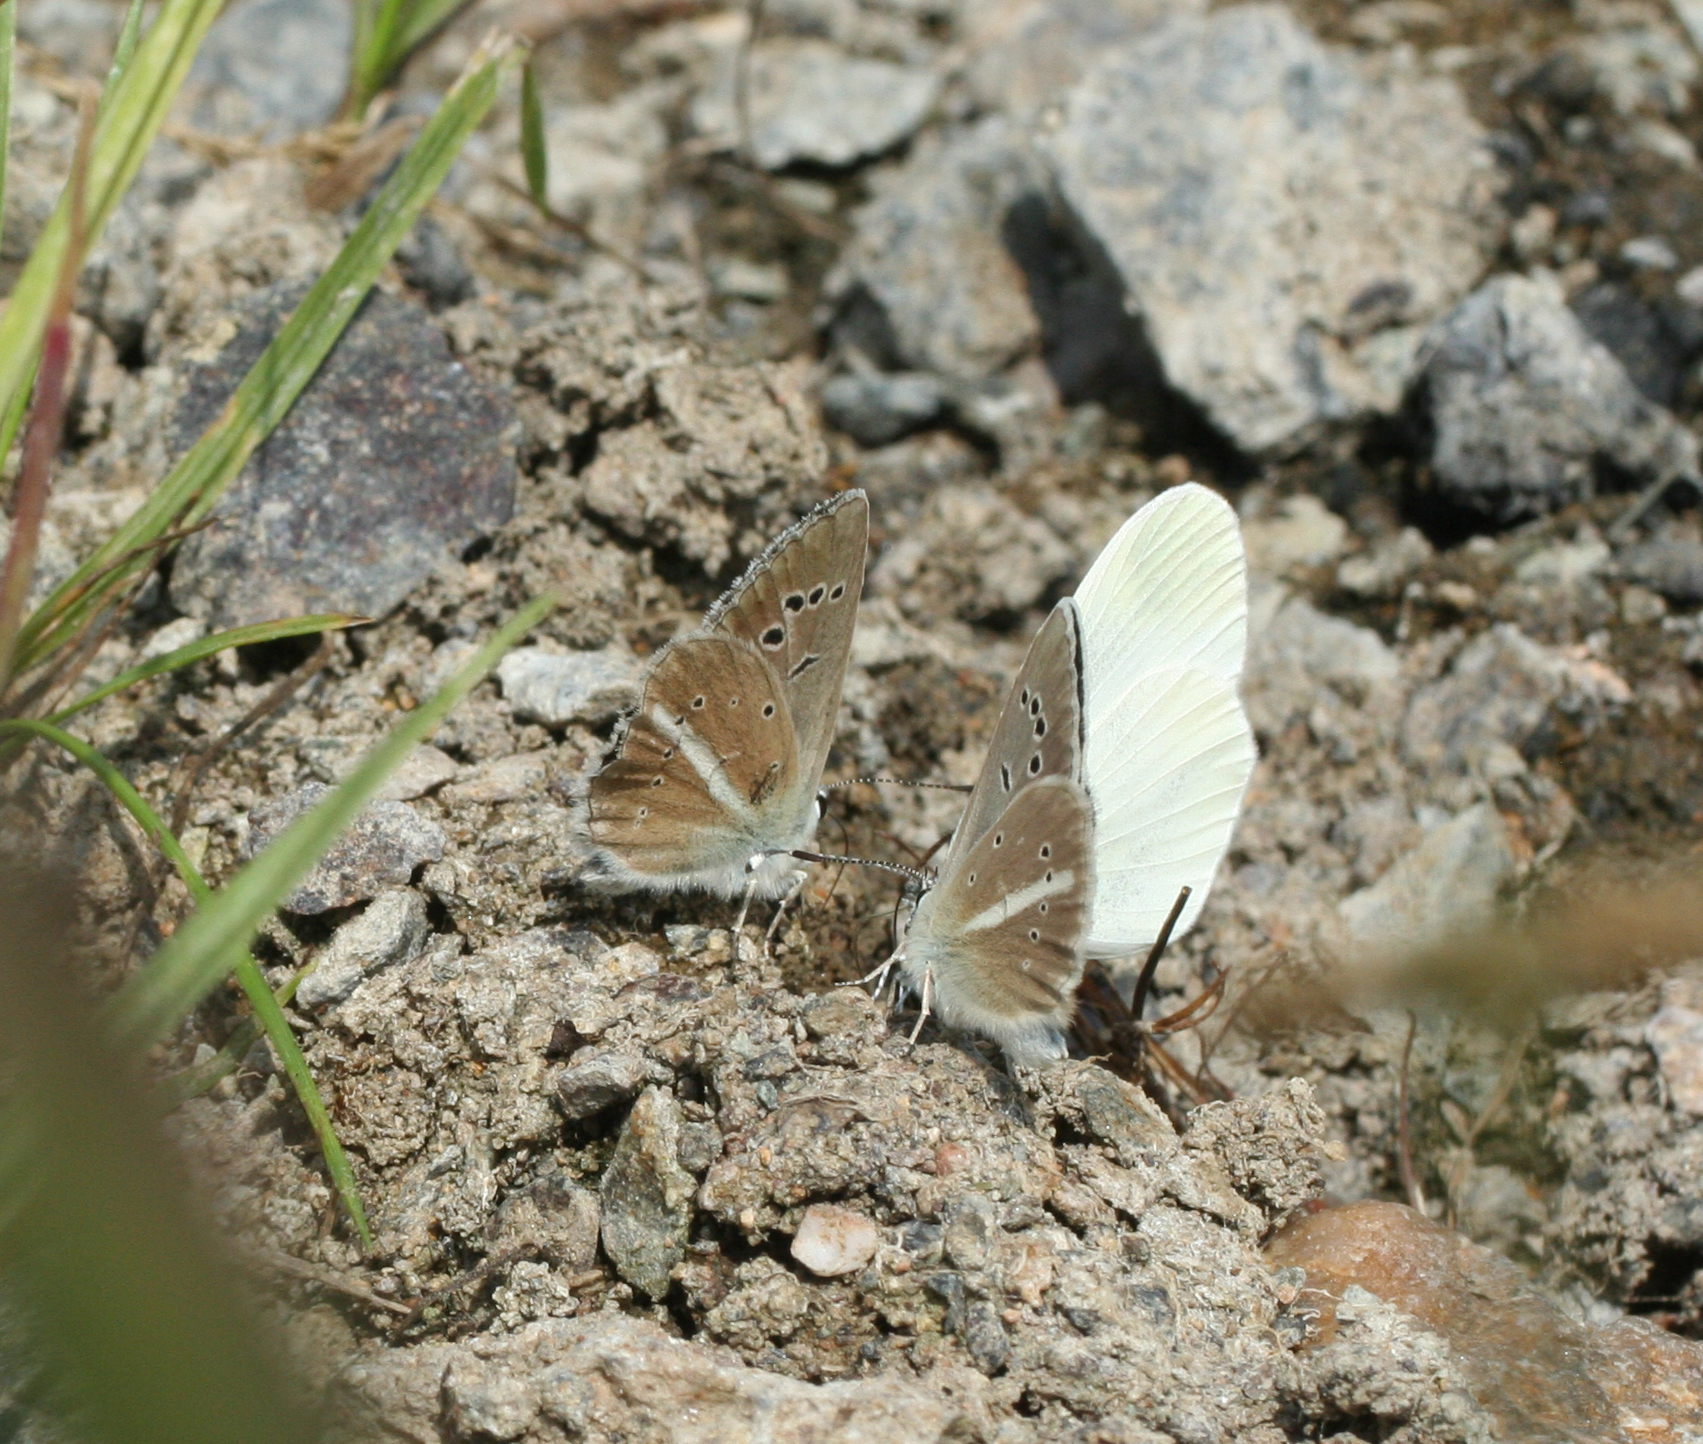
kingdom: Animalia
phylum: Arthropoda
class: Insecta
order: Lepidoptera
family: Lycaenidae
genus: Agrodiaetus
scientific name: Agrodiaetus damon
